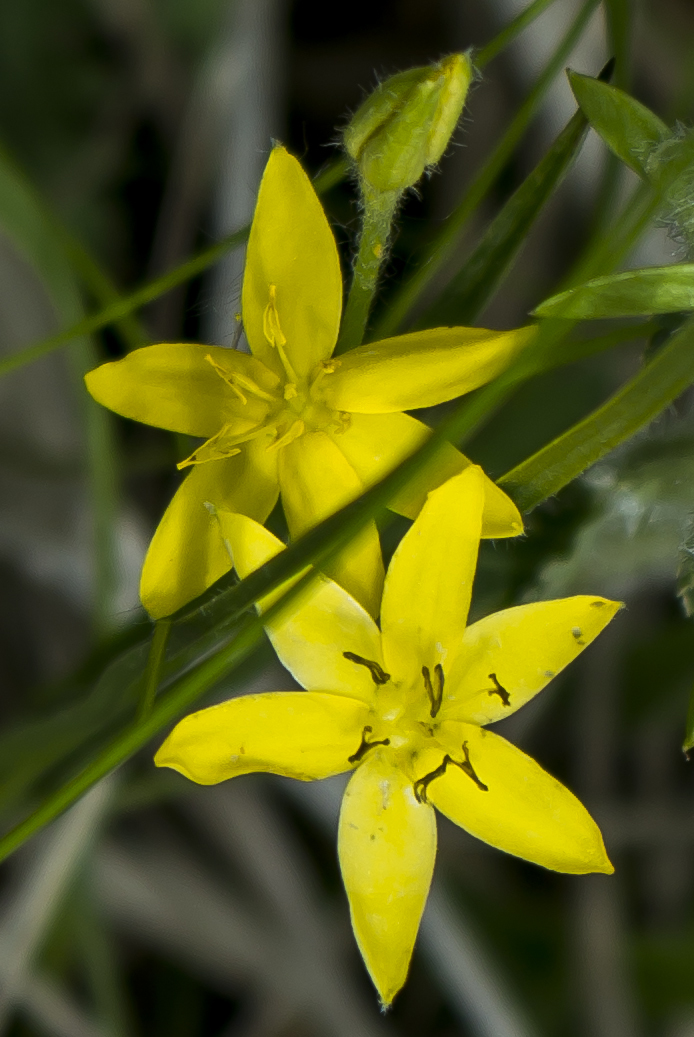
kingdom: Plantae
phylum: Tracheophyta
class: Liliopsida
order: Asparagales
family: Hypoxidaceae
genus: Hypoxis
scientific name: Hypoxis hirsuta
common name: Common goldstar
